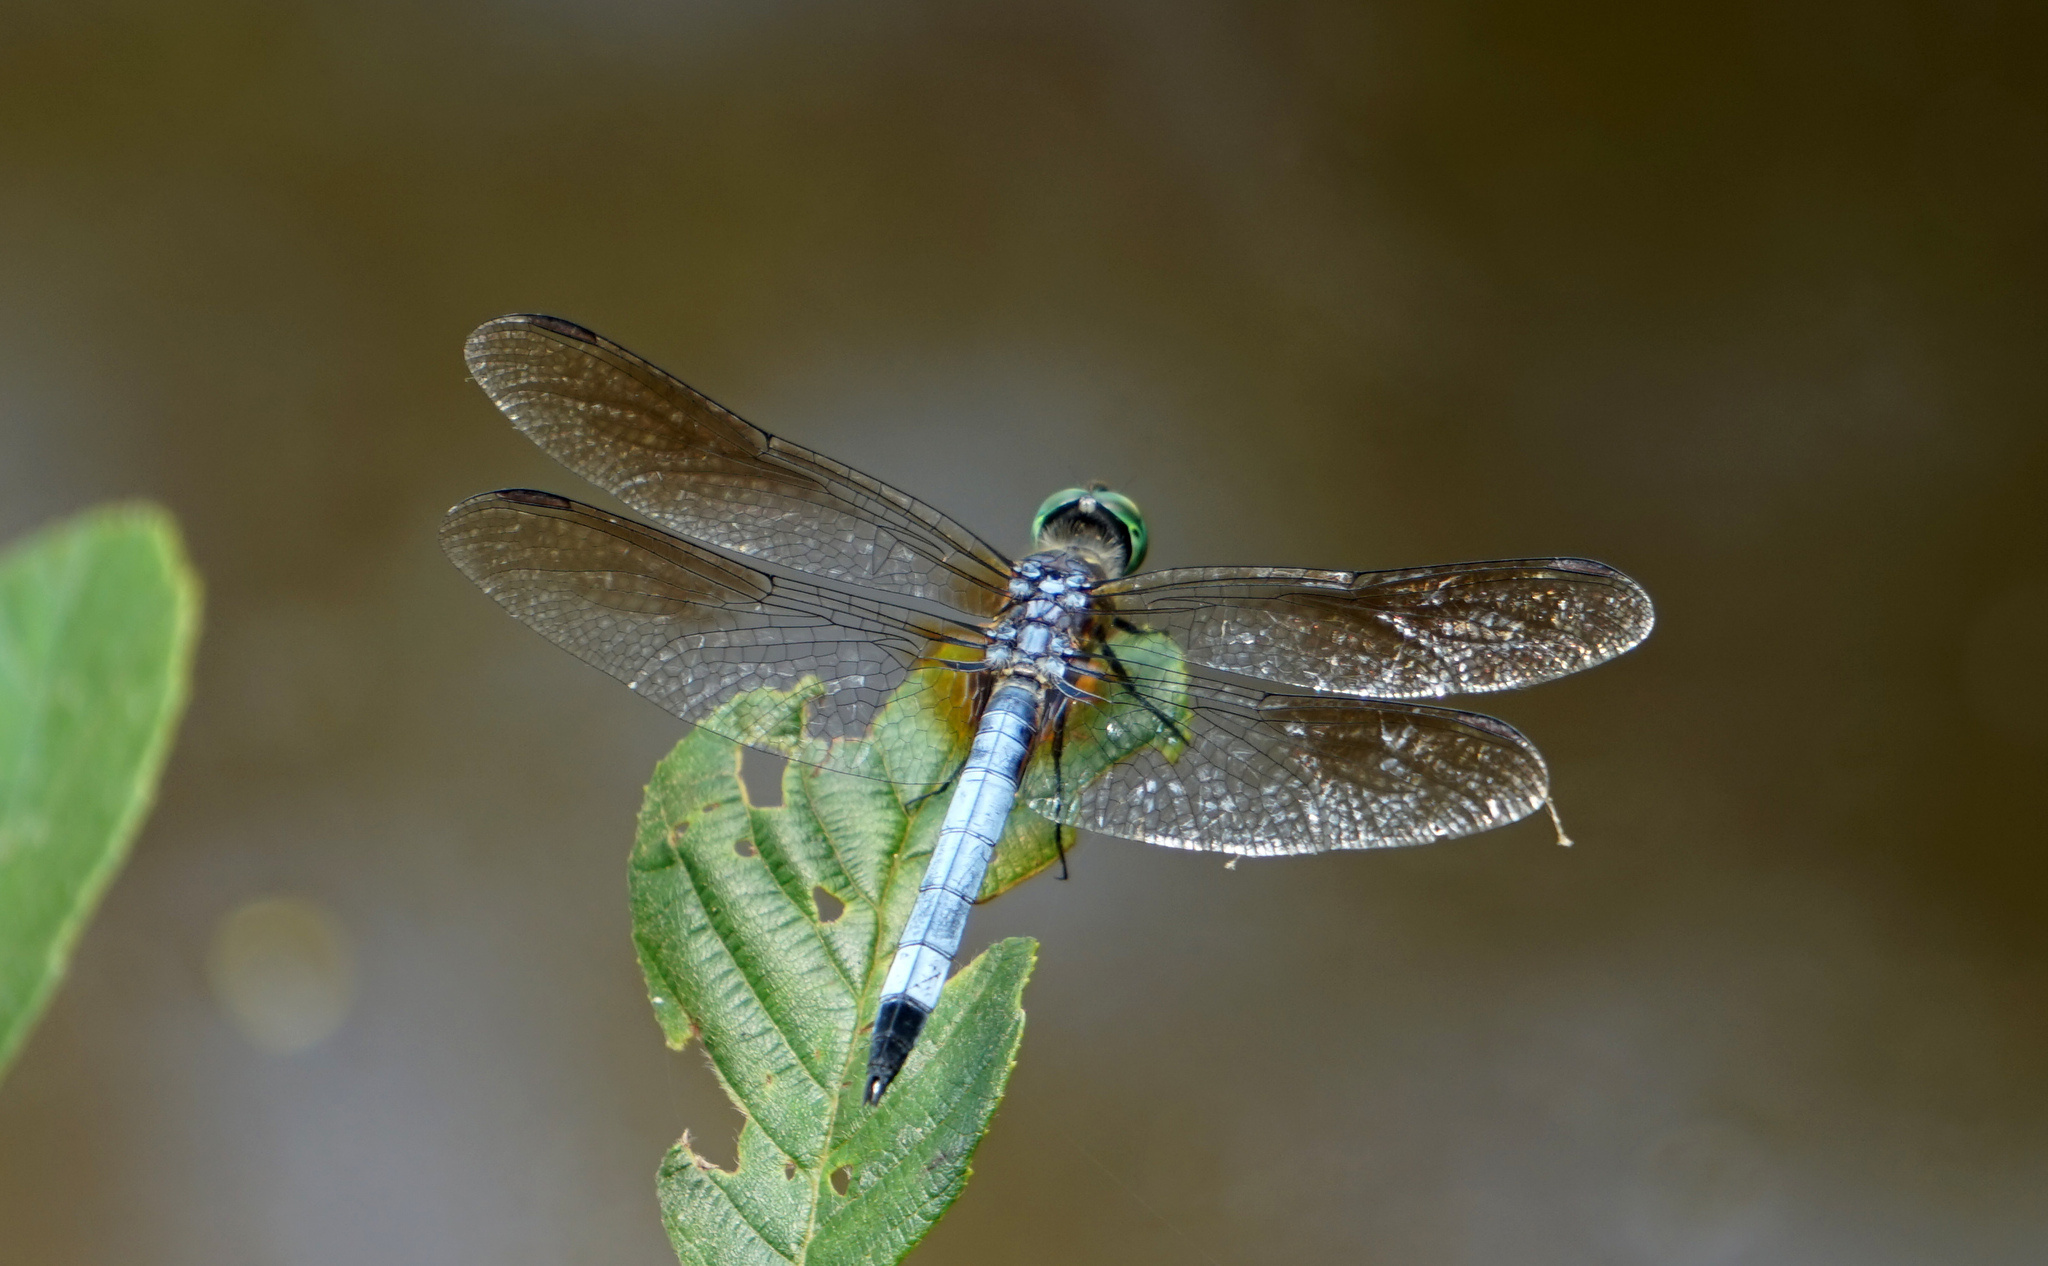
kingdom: Animalia
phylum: Arthropoda
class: Insecta
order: Odonata
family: Libellulidae
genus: Pachydiplax
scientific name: Pachydiplax longipennis
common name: Blue dasher
